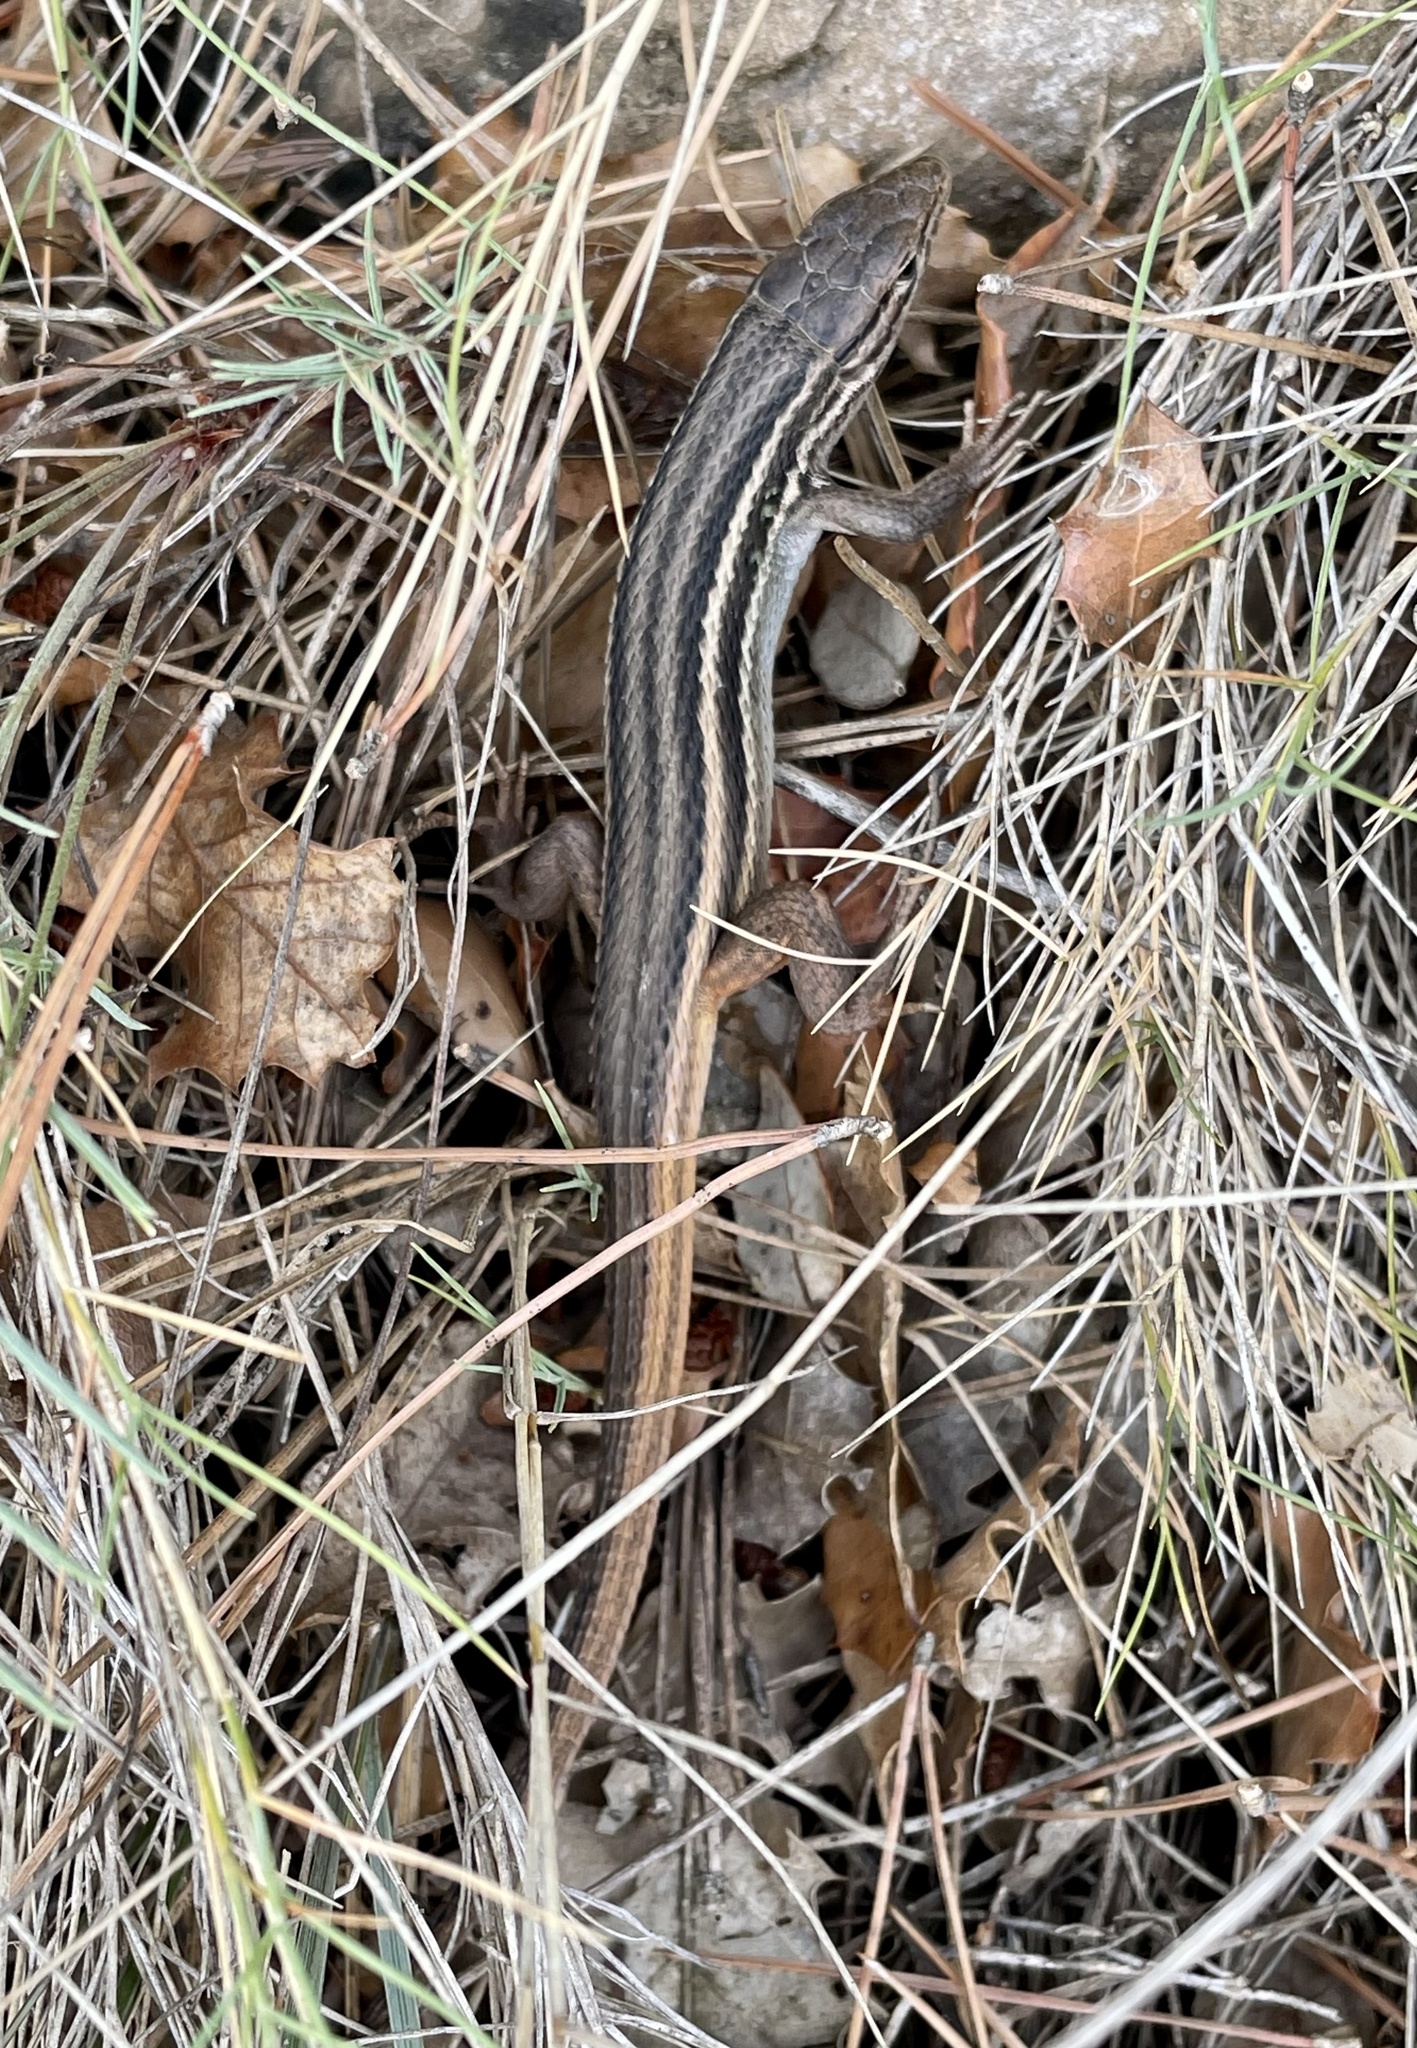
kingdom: Animalia
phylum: Chordata
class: Squamata
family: Lacertidae
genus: Psammodromus
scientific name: Psammodromus algirus
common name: Algerian psammodromus
